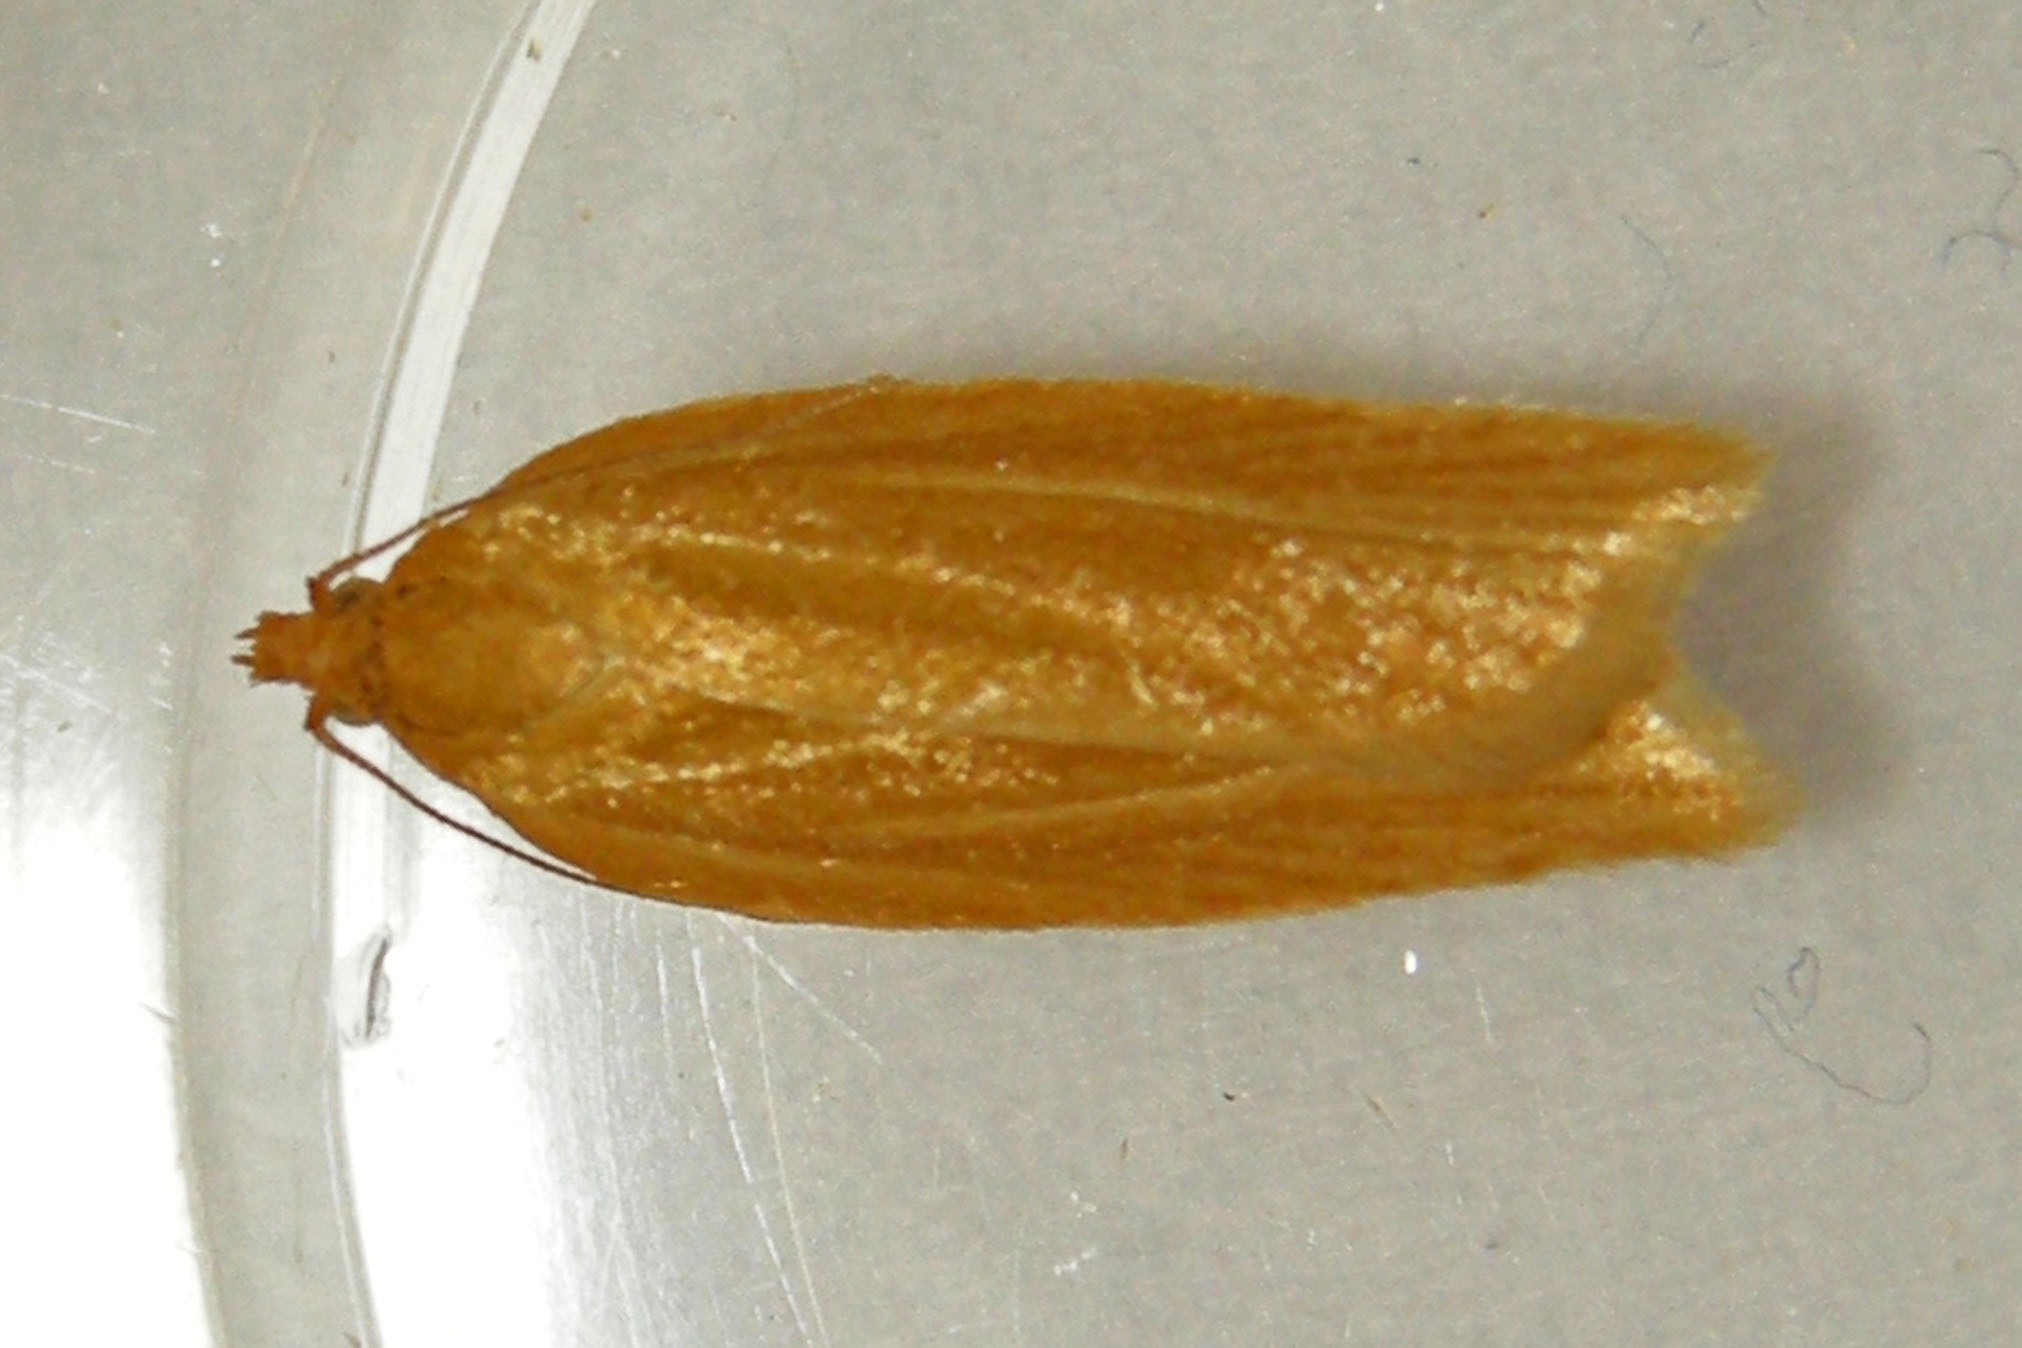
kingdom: Animalia
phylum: Arthropoda
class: Insecta
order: Lepidoptera
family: Tortricidae
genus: Clepsis
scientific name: Clepsis clemensiana
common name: Clemens' clepsis moth
